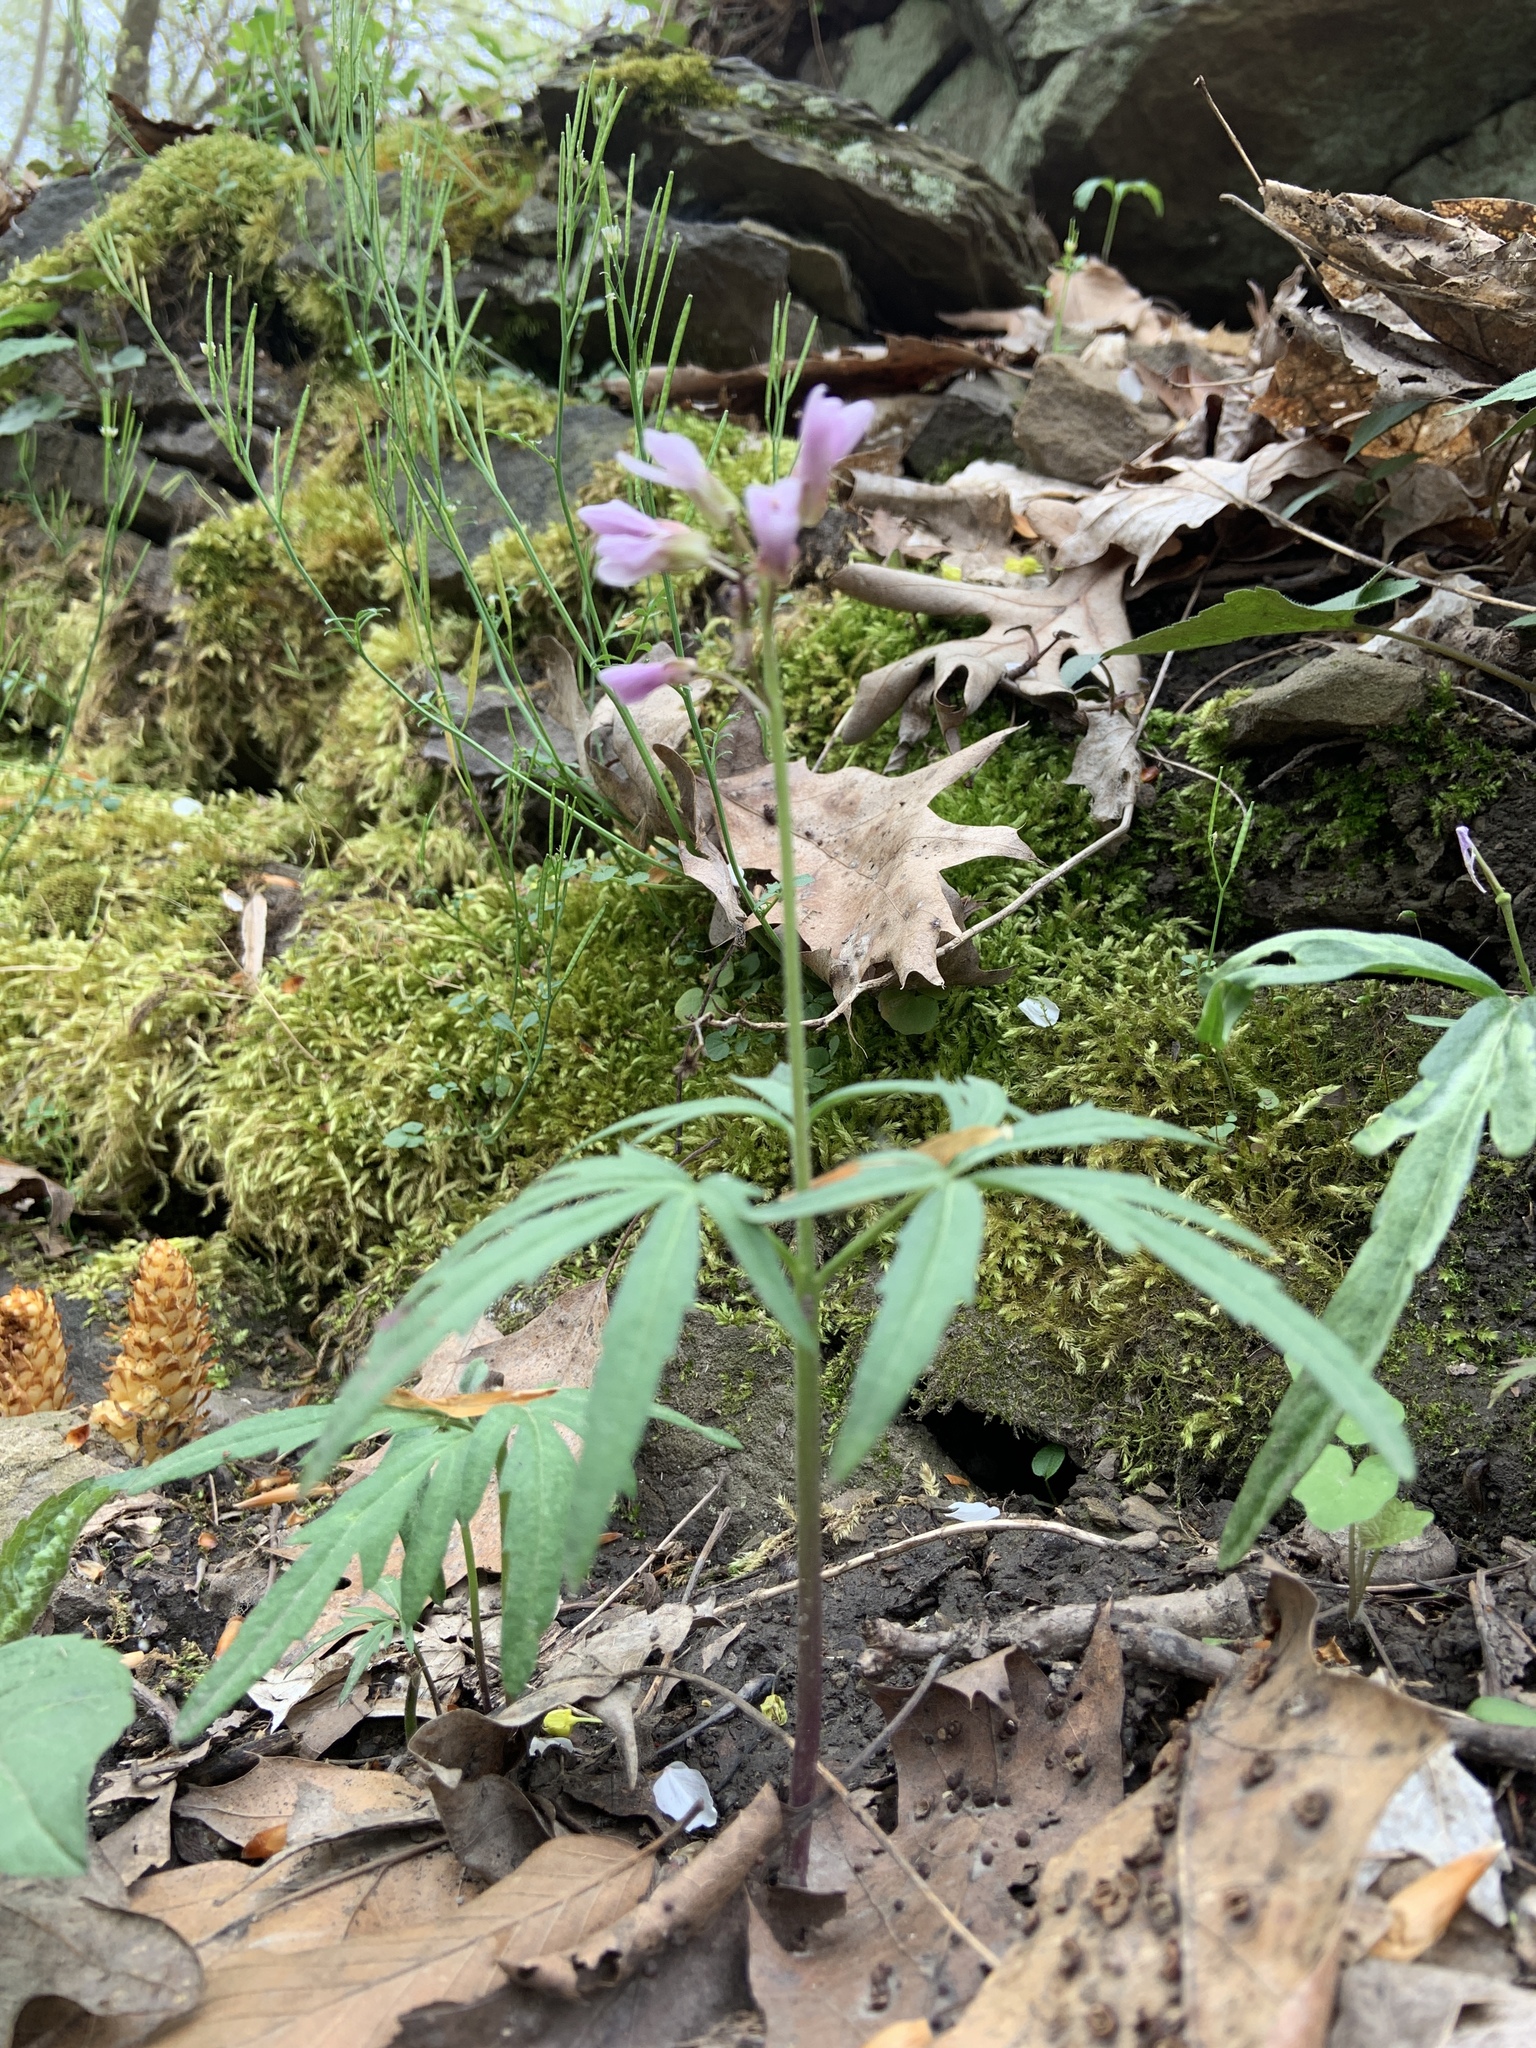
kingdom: Plantae
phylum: Tracheophyta
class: Magnoliopsida
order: Brassicales
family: Brassicaceae
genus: Cardamine
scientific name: Cardamine concatenata
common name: Cut-leaf toothcup
